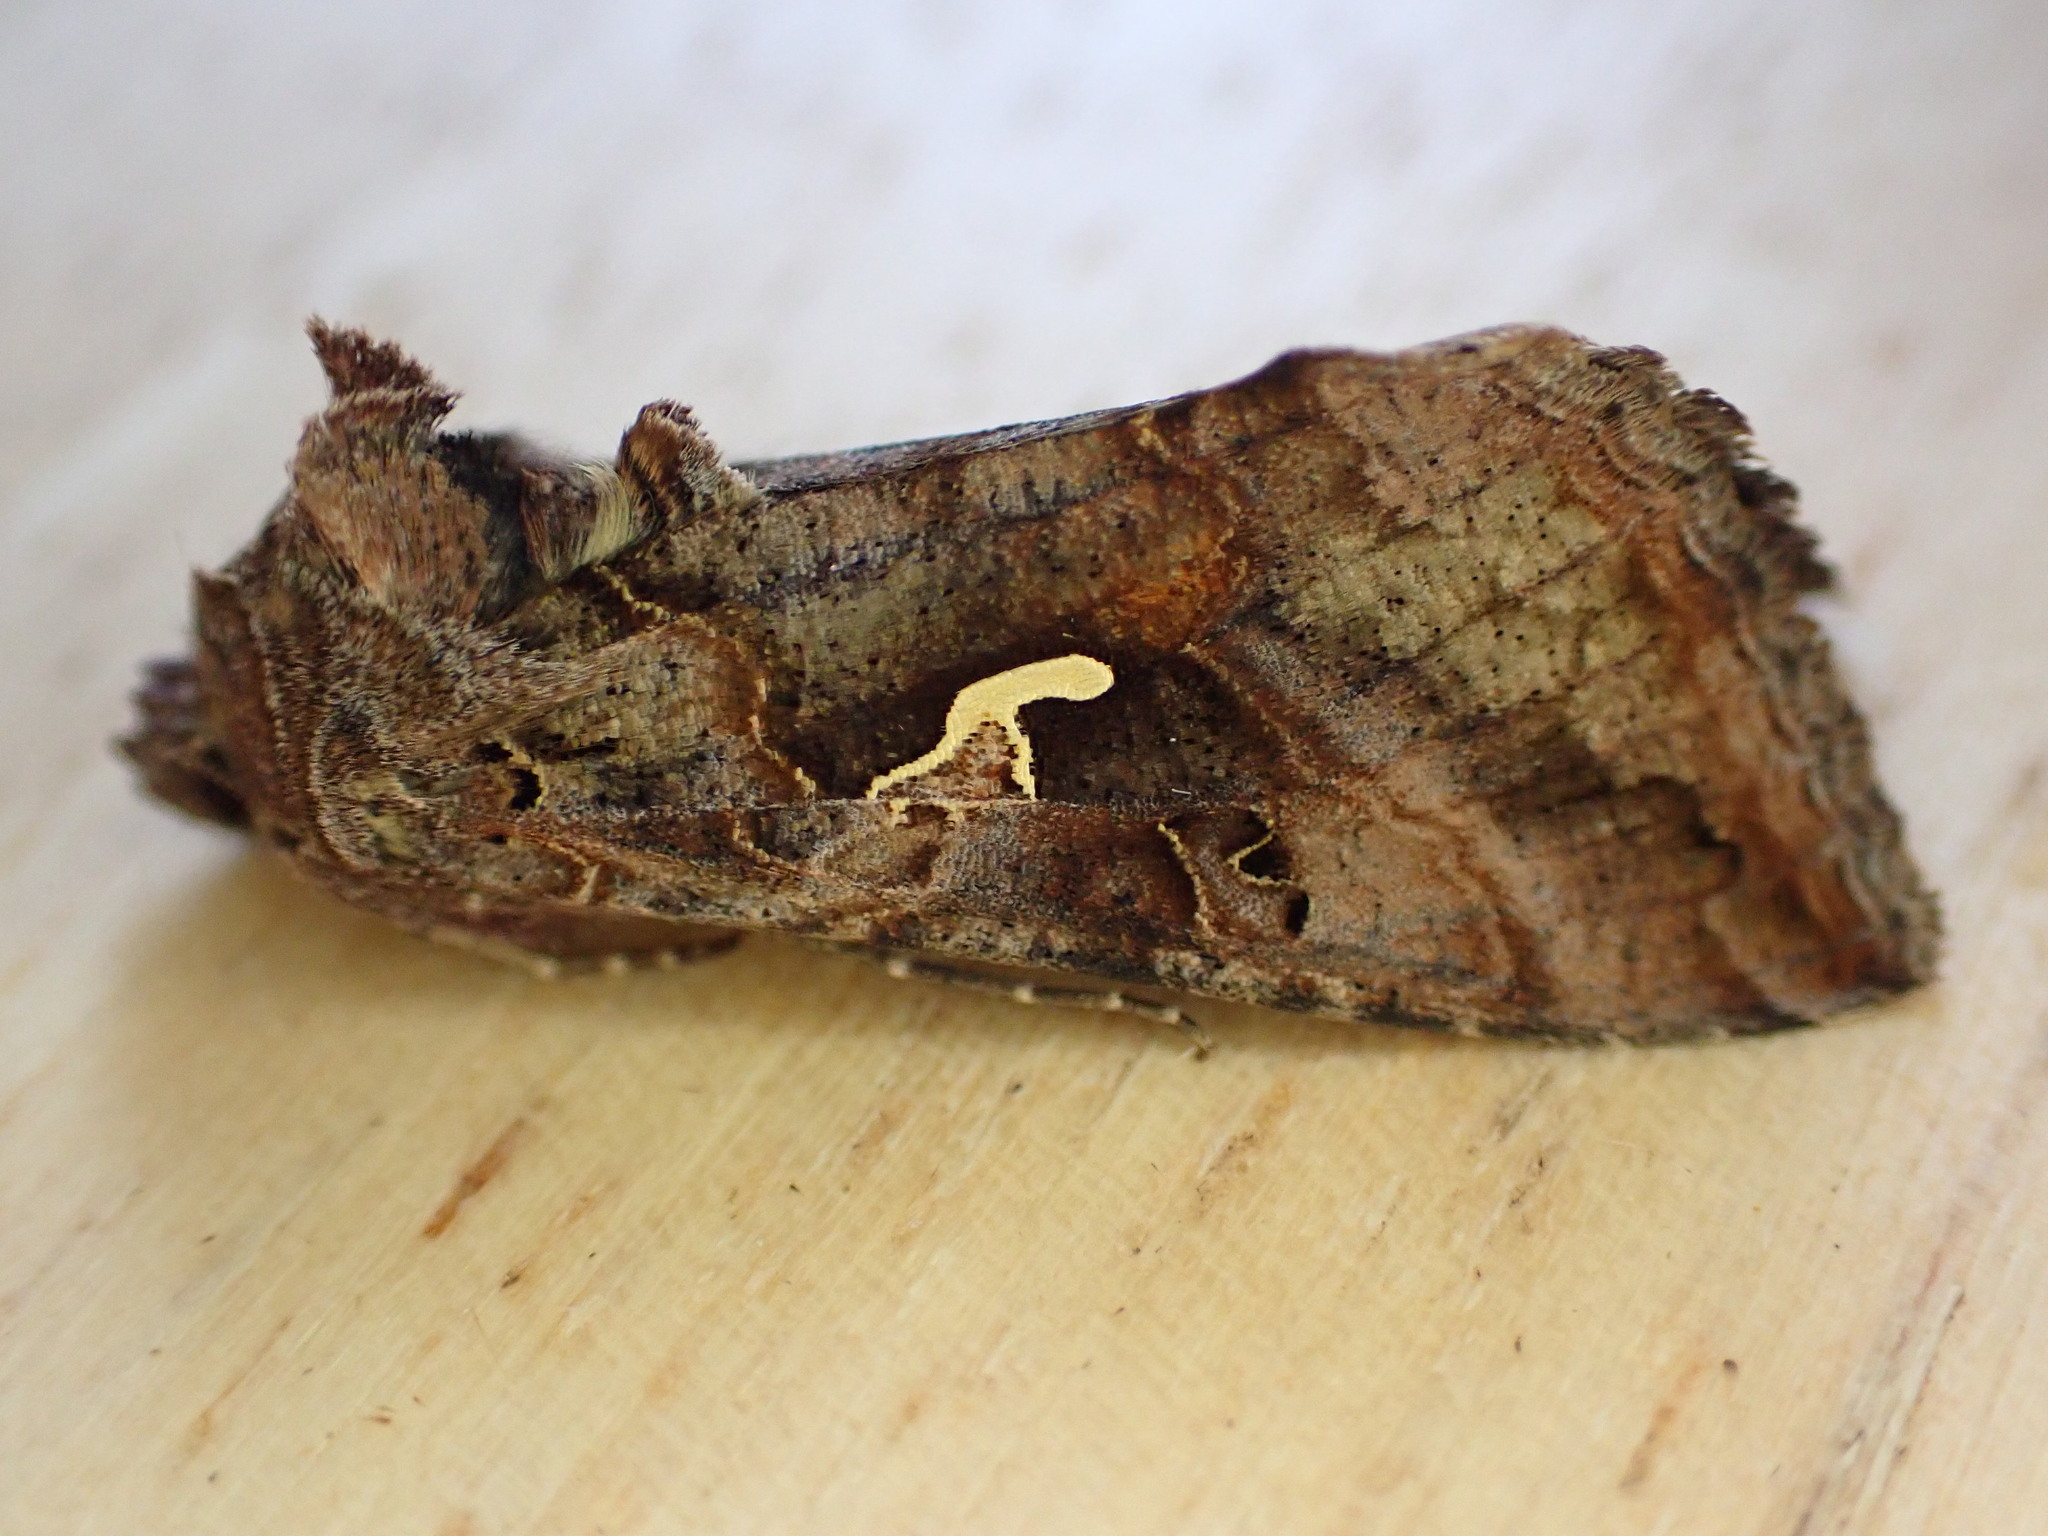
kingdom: Animalia
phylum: Arthropoda
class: Insecta
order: Lepidoptera
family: Noctuidae
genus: Autographa
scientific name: Autographa gamma
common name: Silver y
